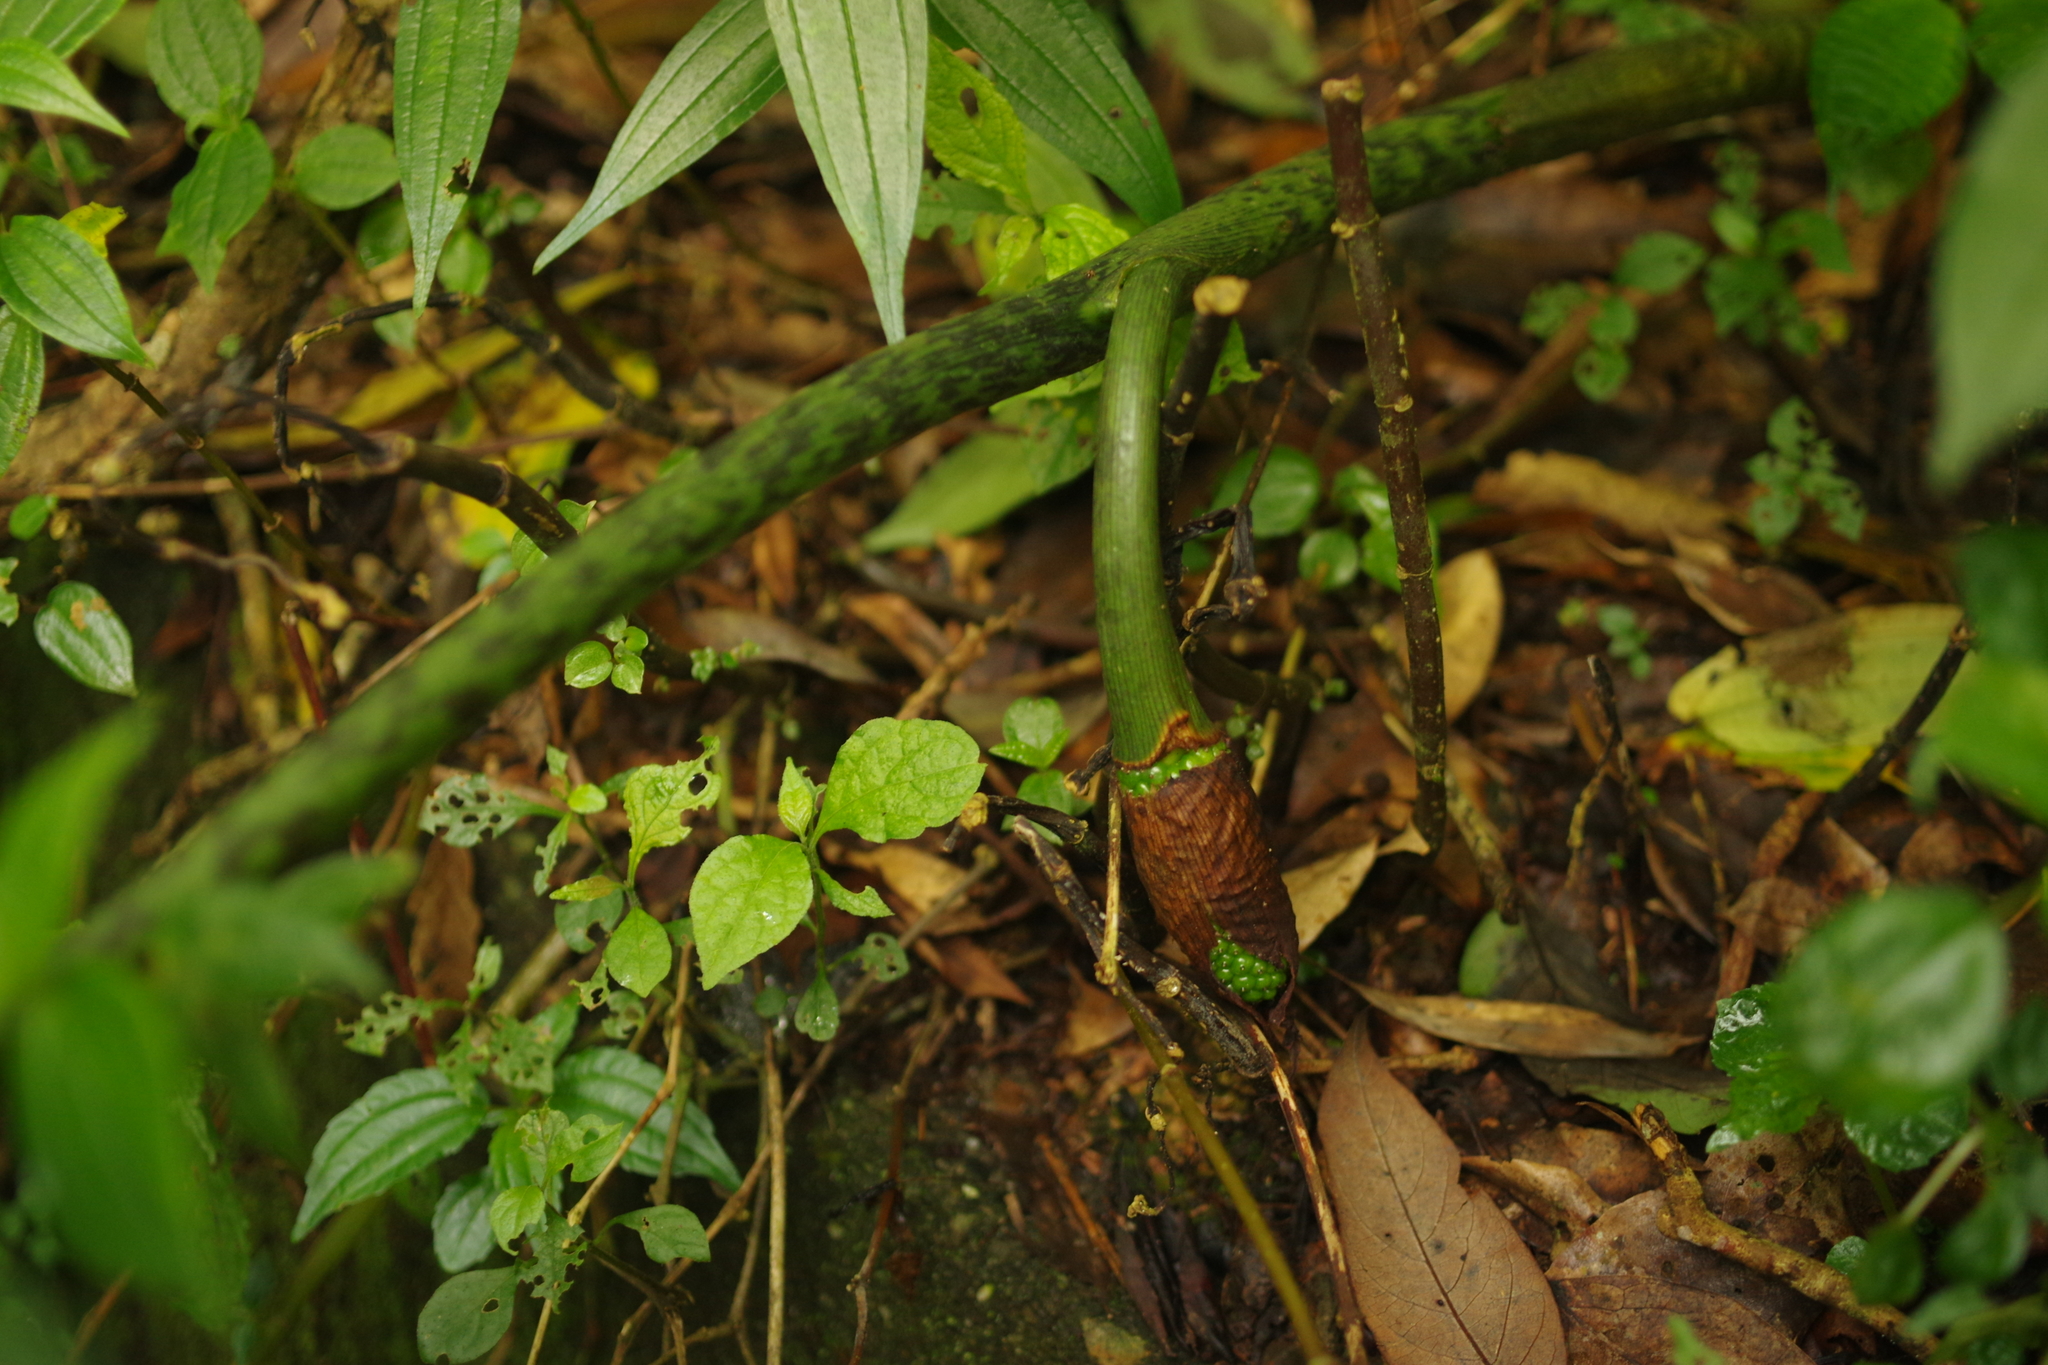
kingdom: Plantae
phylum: Tracheophyta
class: Liliopsida
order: Alismatales
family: Araceae
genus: Arisaema
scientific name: Arisaema taiwanense
